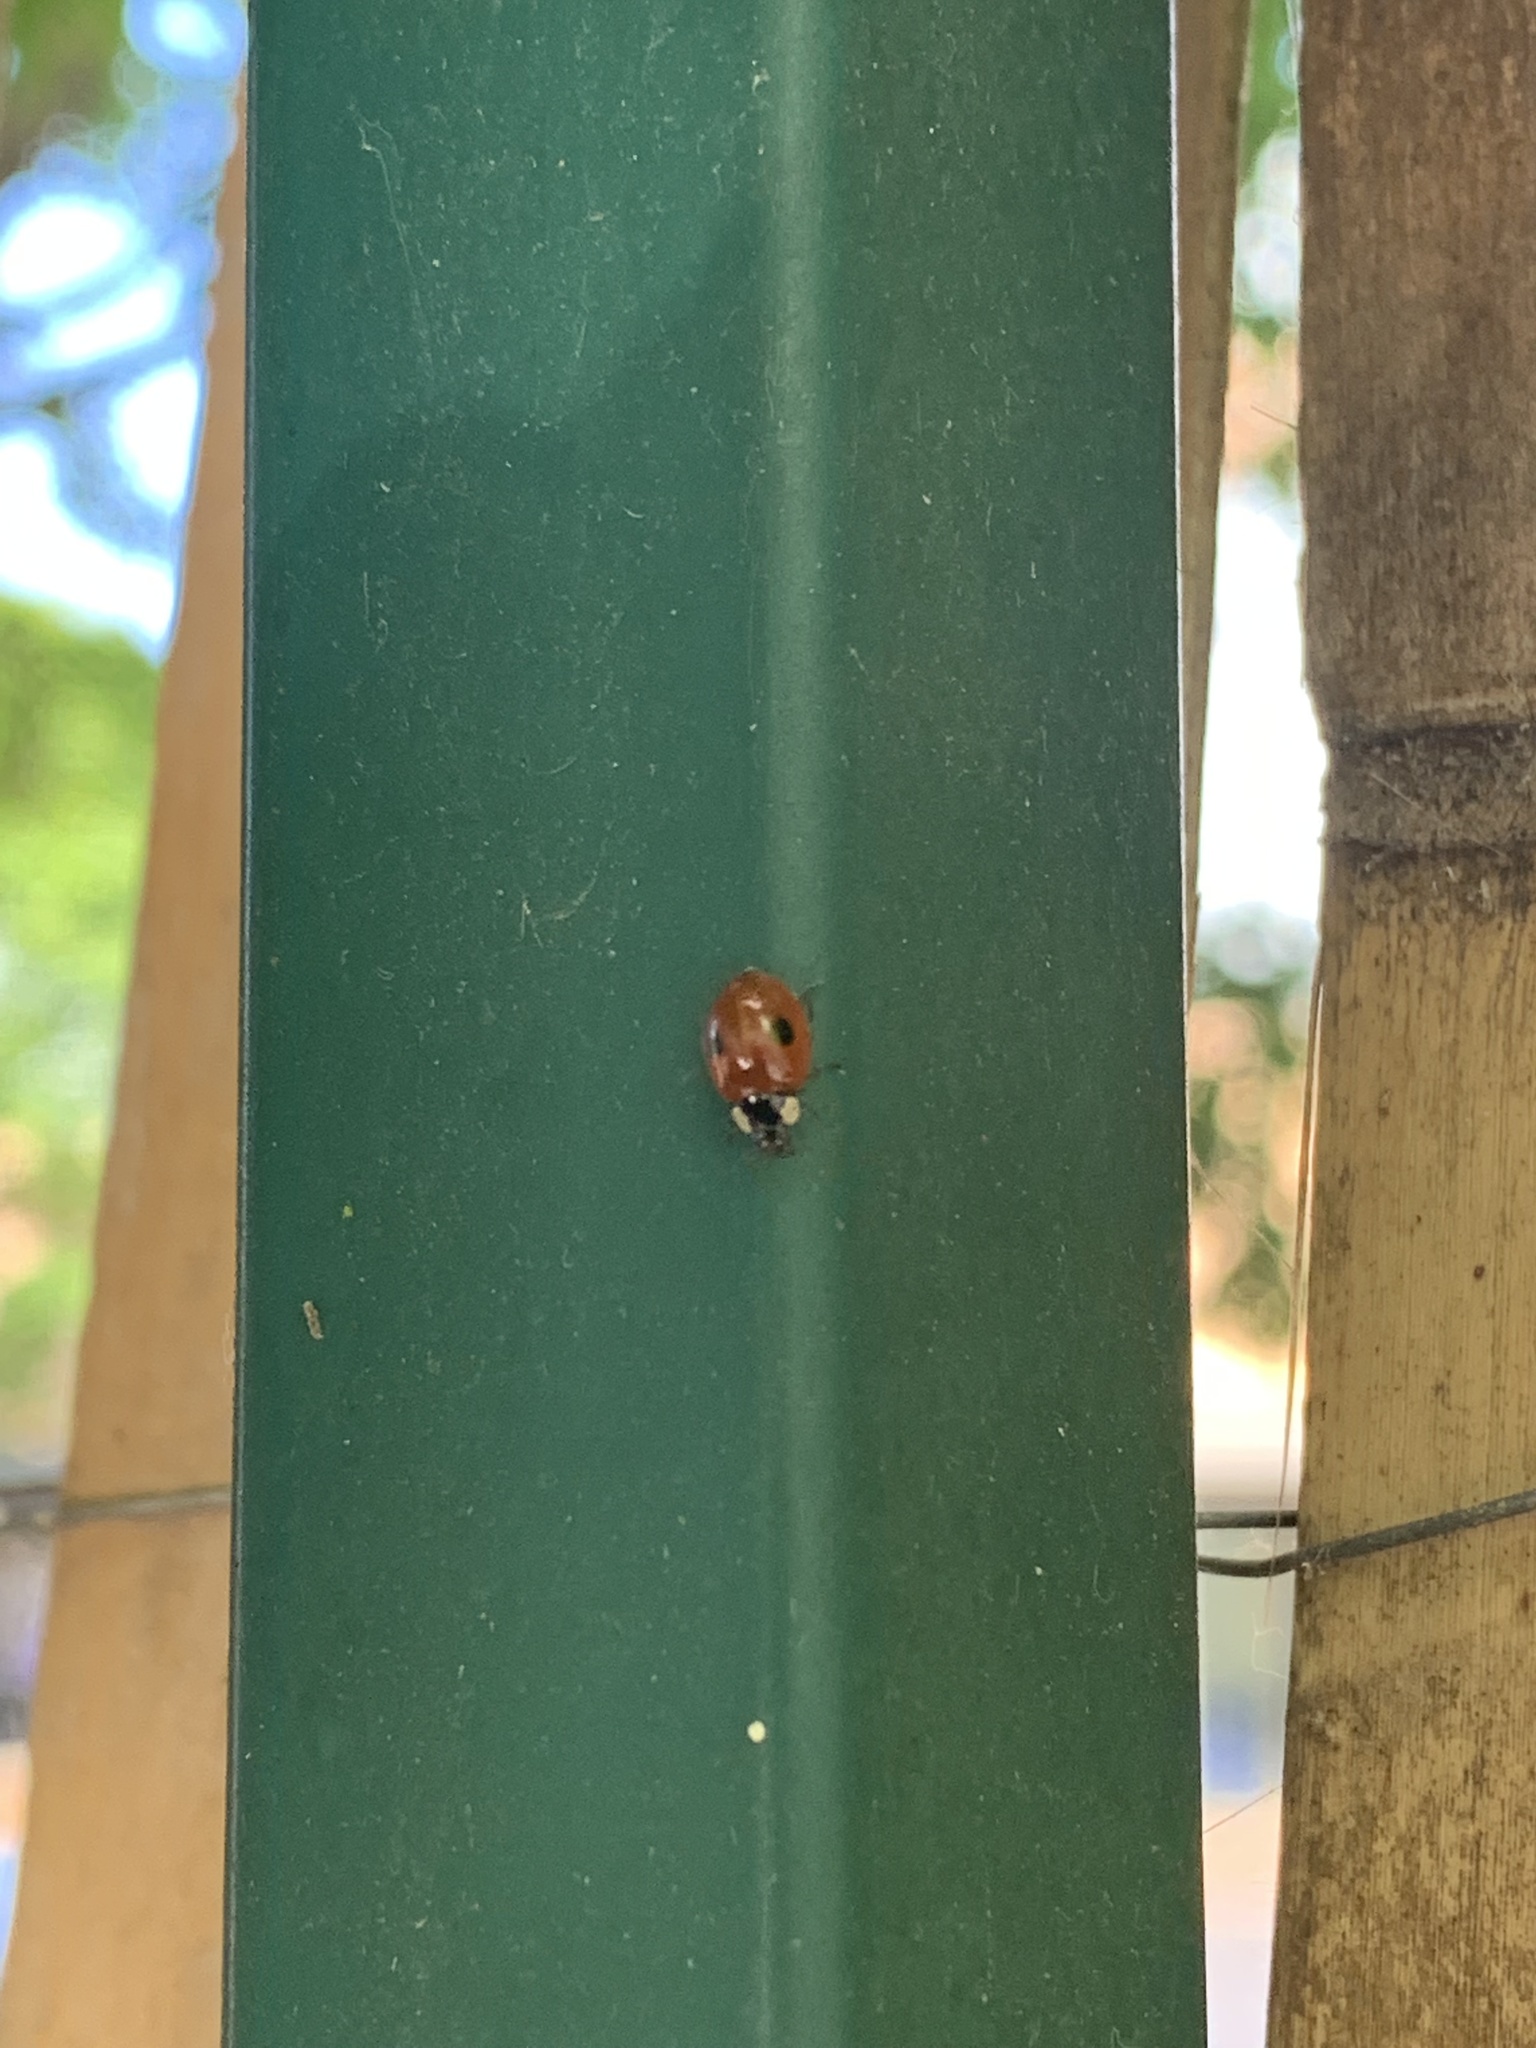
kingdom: Animalia
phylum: Arthropoda
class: Insecta
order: Coleoptera
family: Coccinellidae
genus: Adalia
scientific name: Adalia bipunctata
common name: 2-spot ladybird
